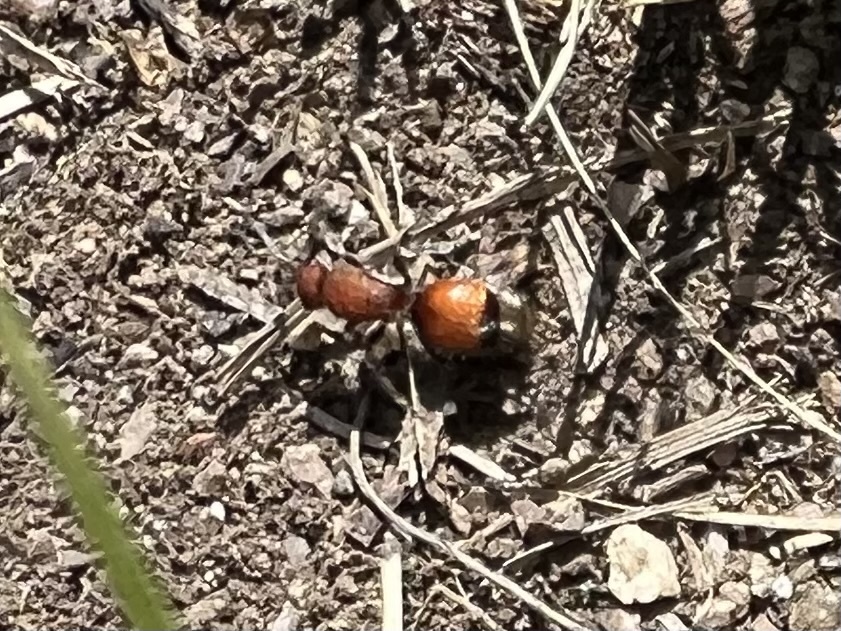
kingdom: Animalia
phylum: Arthropoda
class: Insecta
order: Hymenoptera
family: Mutillidae
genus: Dasymutilla
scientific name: Dasymutilla
